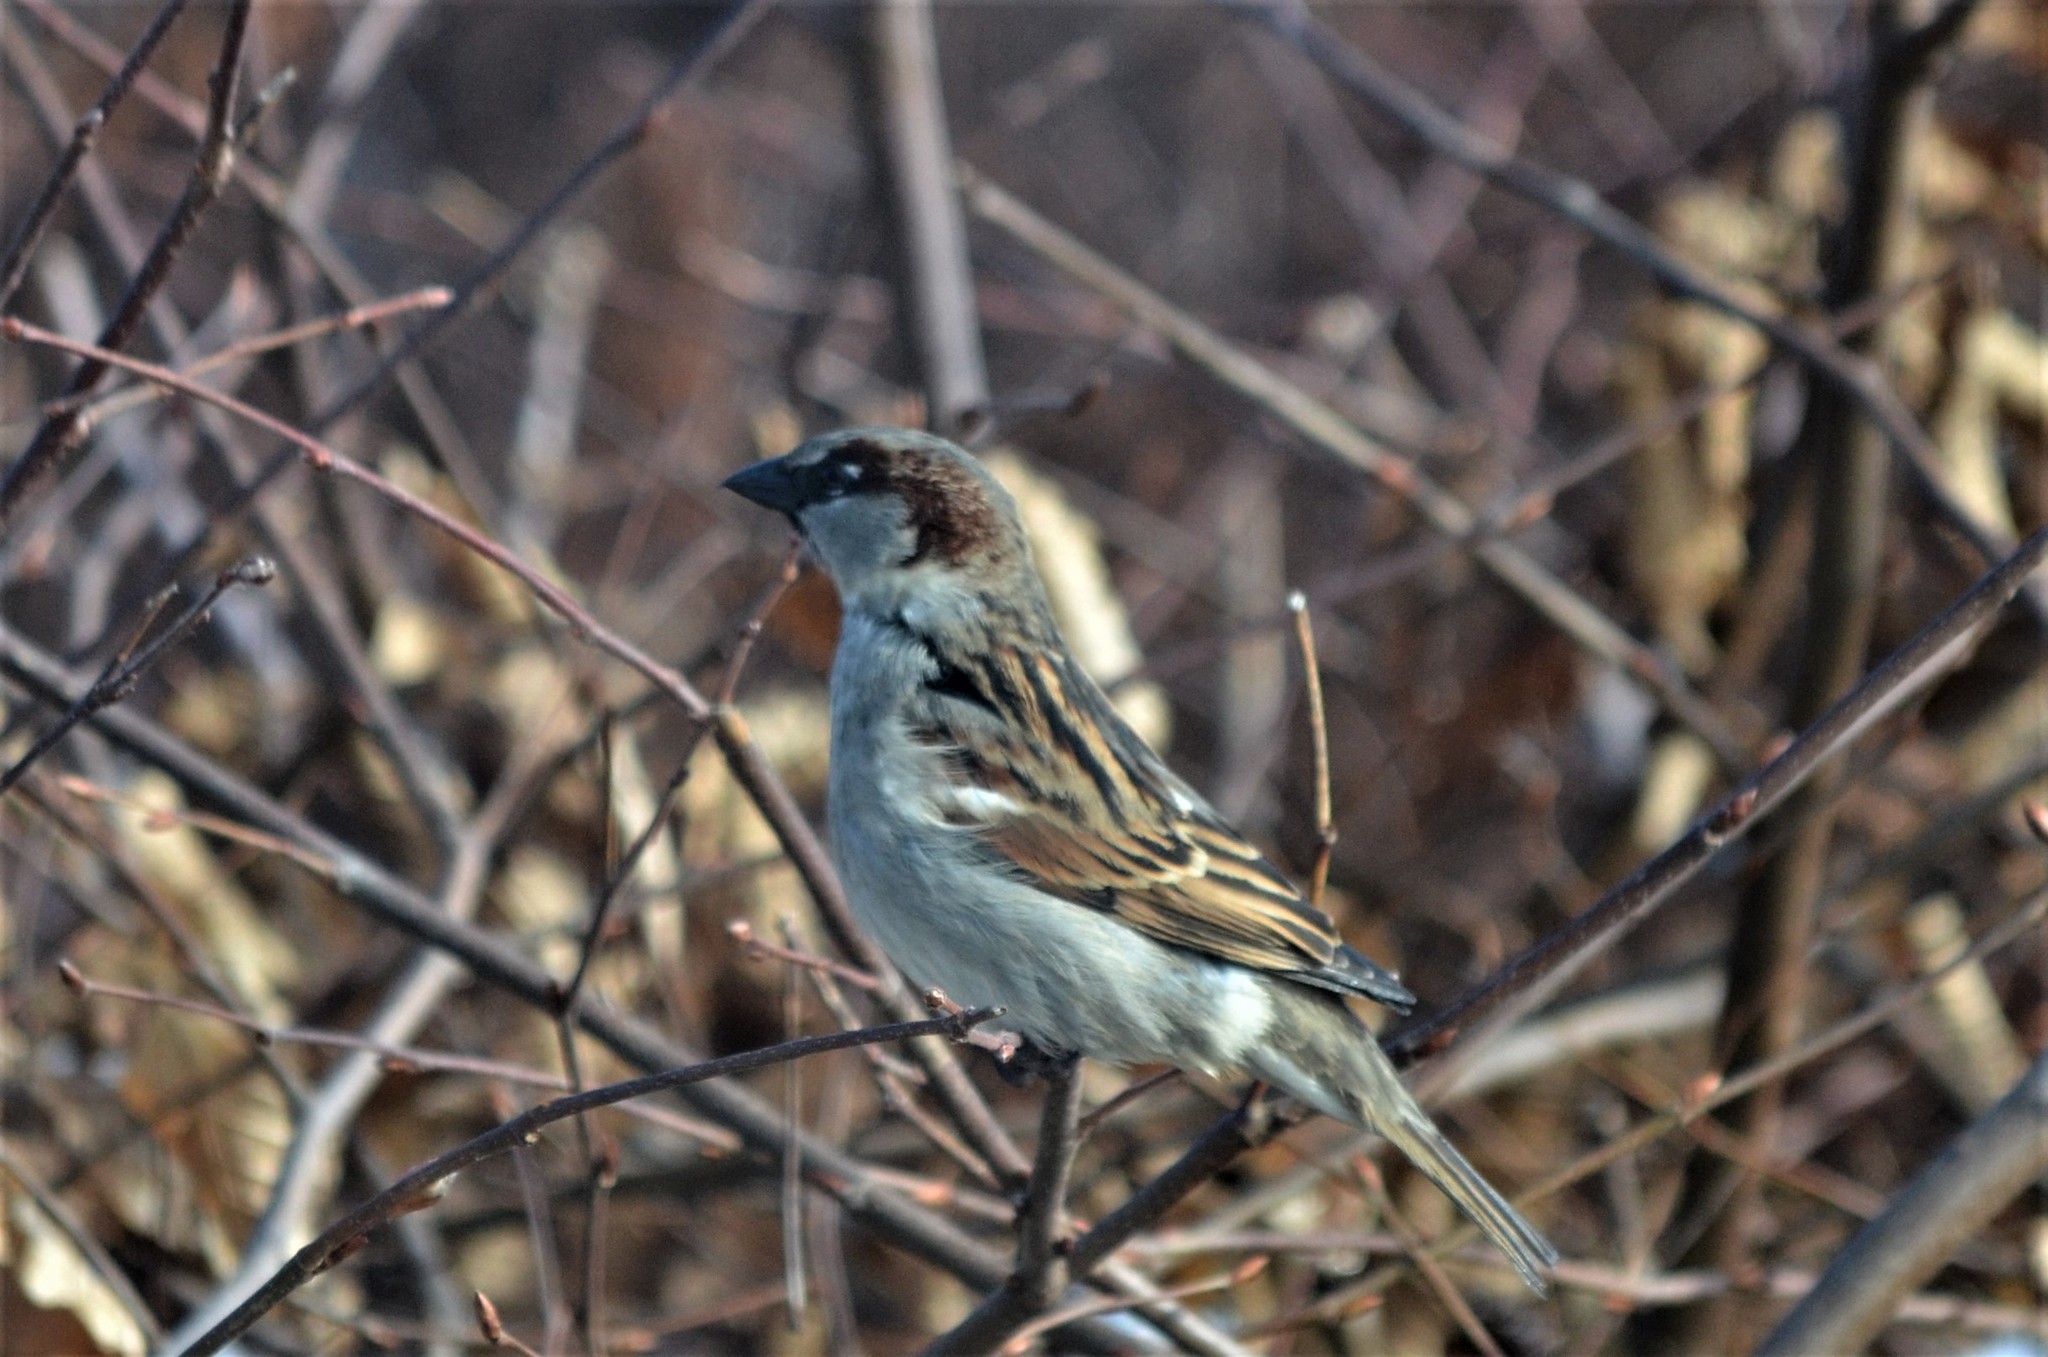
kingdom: Animalia
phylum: Chordata
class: Aves
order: Passeriformes
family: Passeridae
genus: Passer
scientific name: Passer domesticus
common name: House sparrow
